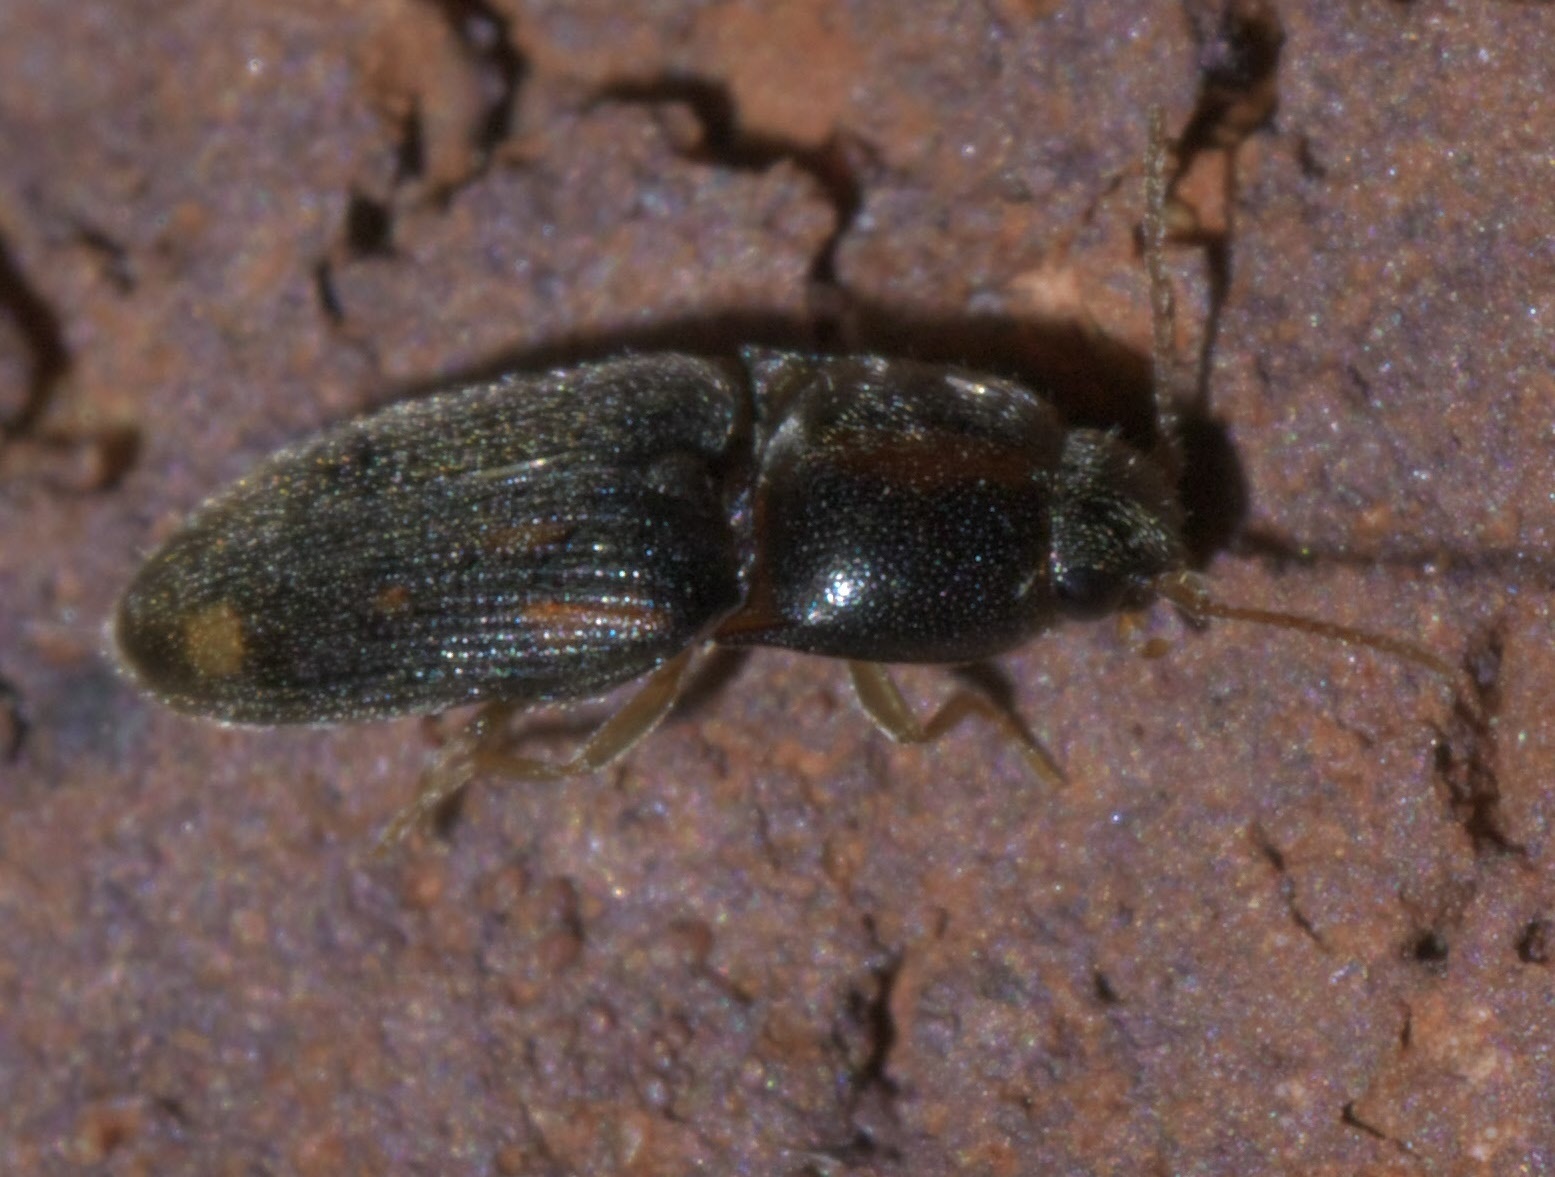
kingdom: Animalia
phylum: Arthropoda
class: Insecta
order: Coleoptera
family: Elateridae
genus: Monocrepidius
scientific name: Monocrepidius bellus
